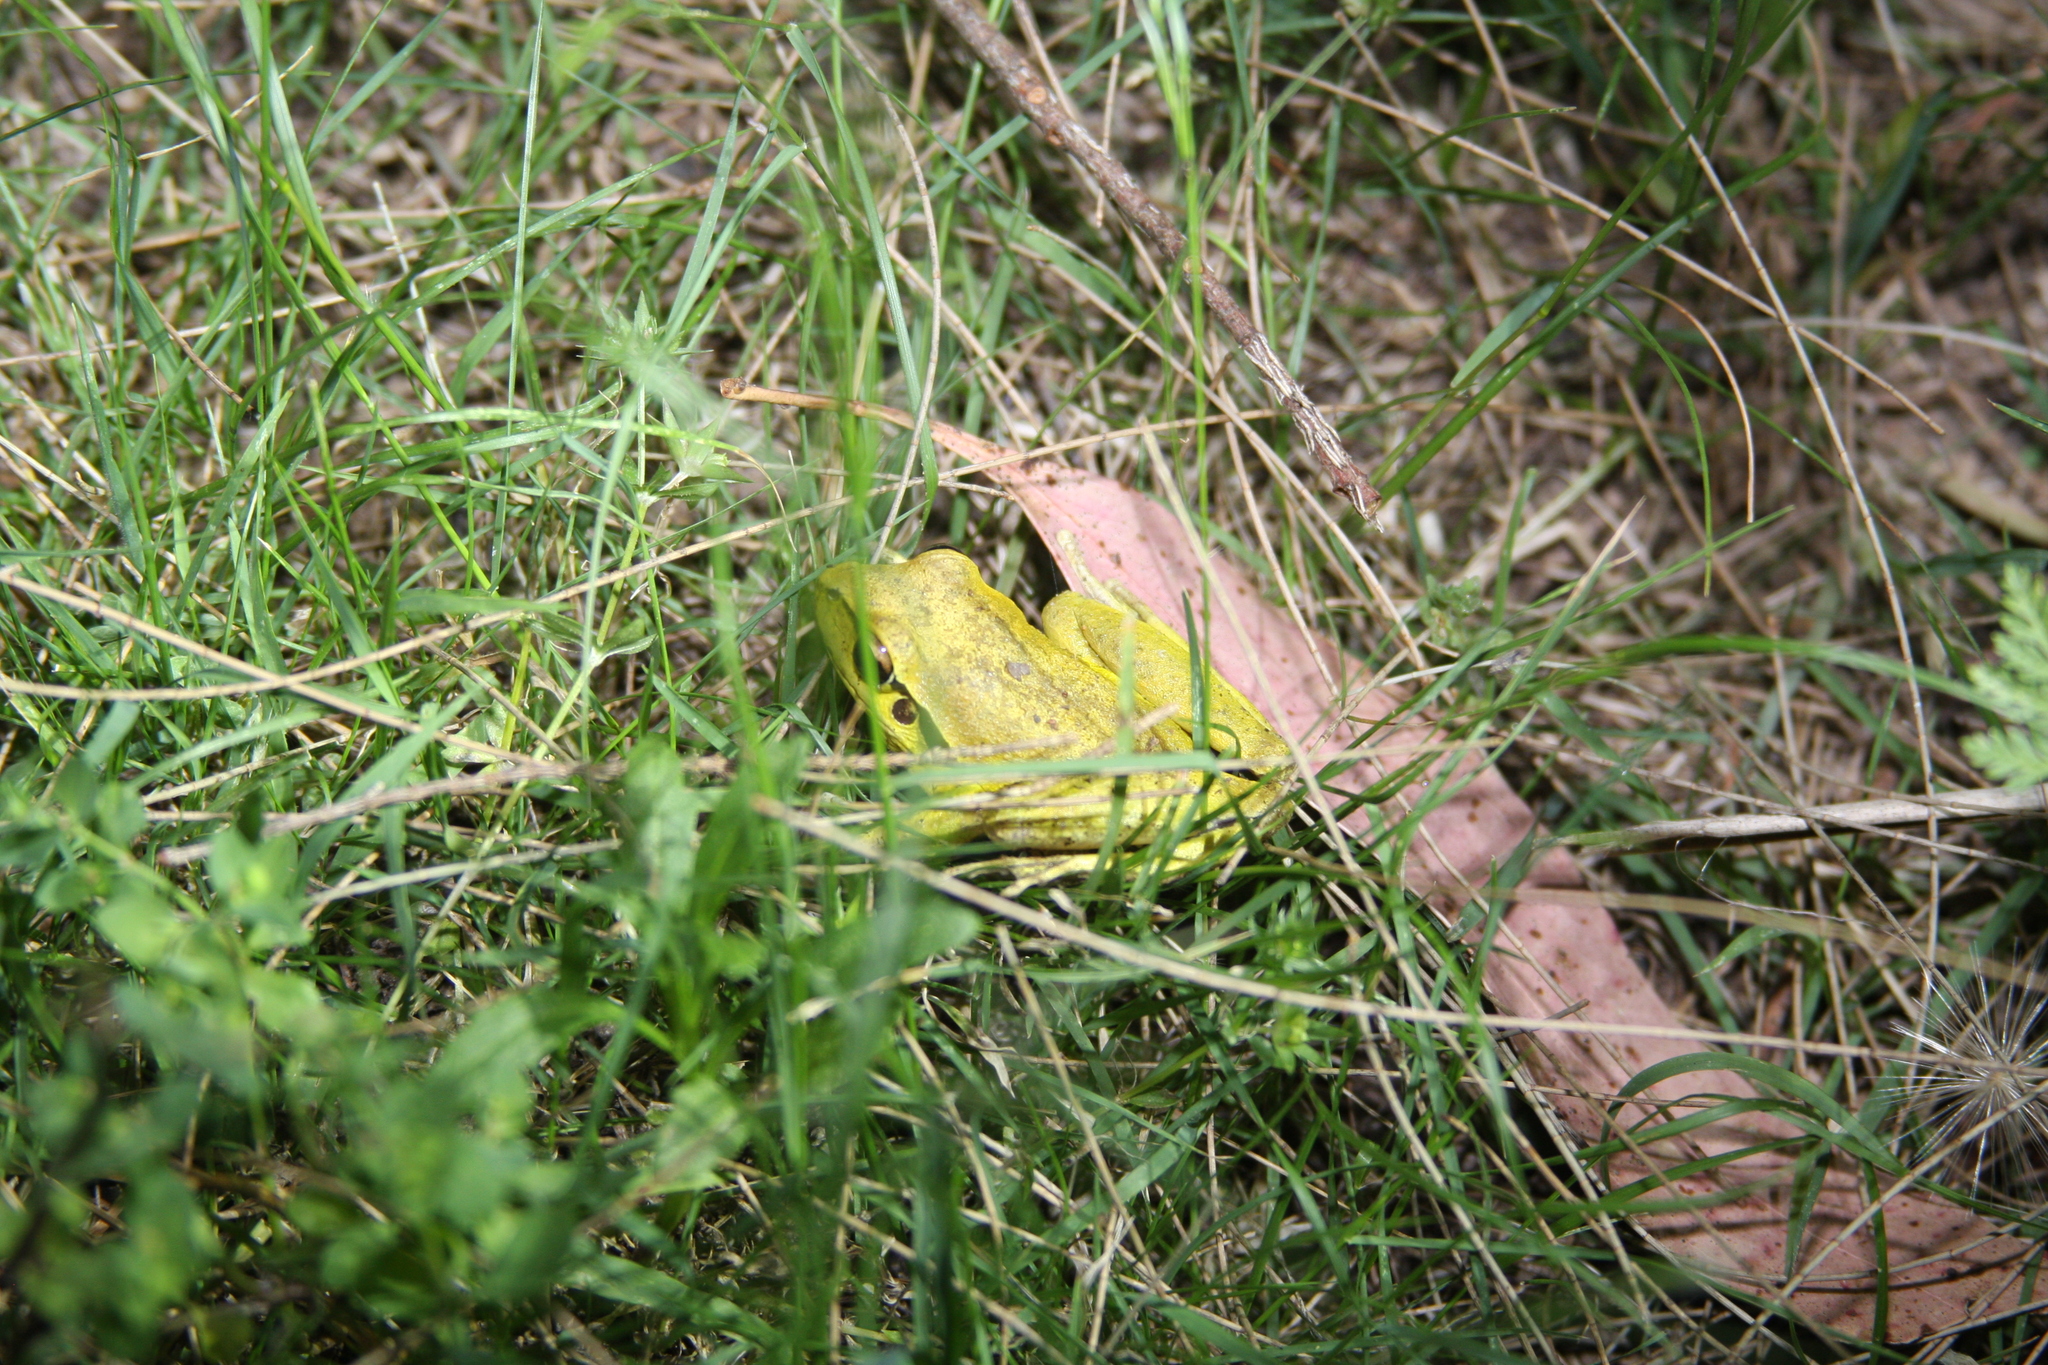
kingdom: Animalia
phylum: Chordata
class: Amphibia
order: Anura
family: Pelodryadidae
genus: Ranoidea
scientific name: Ranoidea lesueurii
